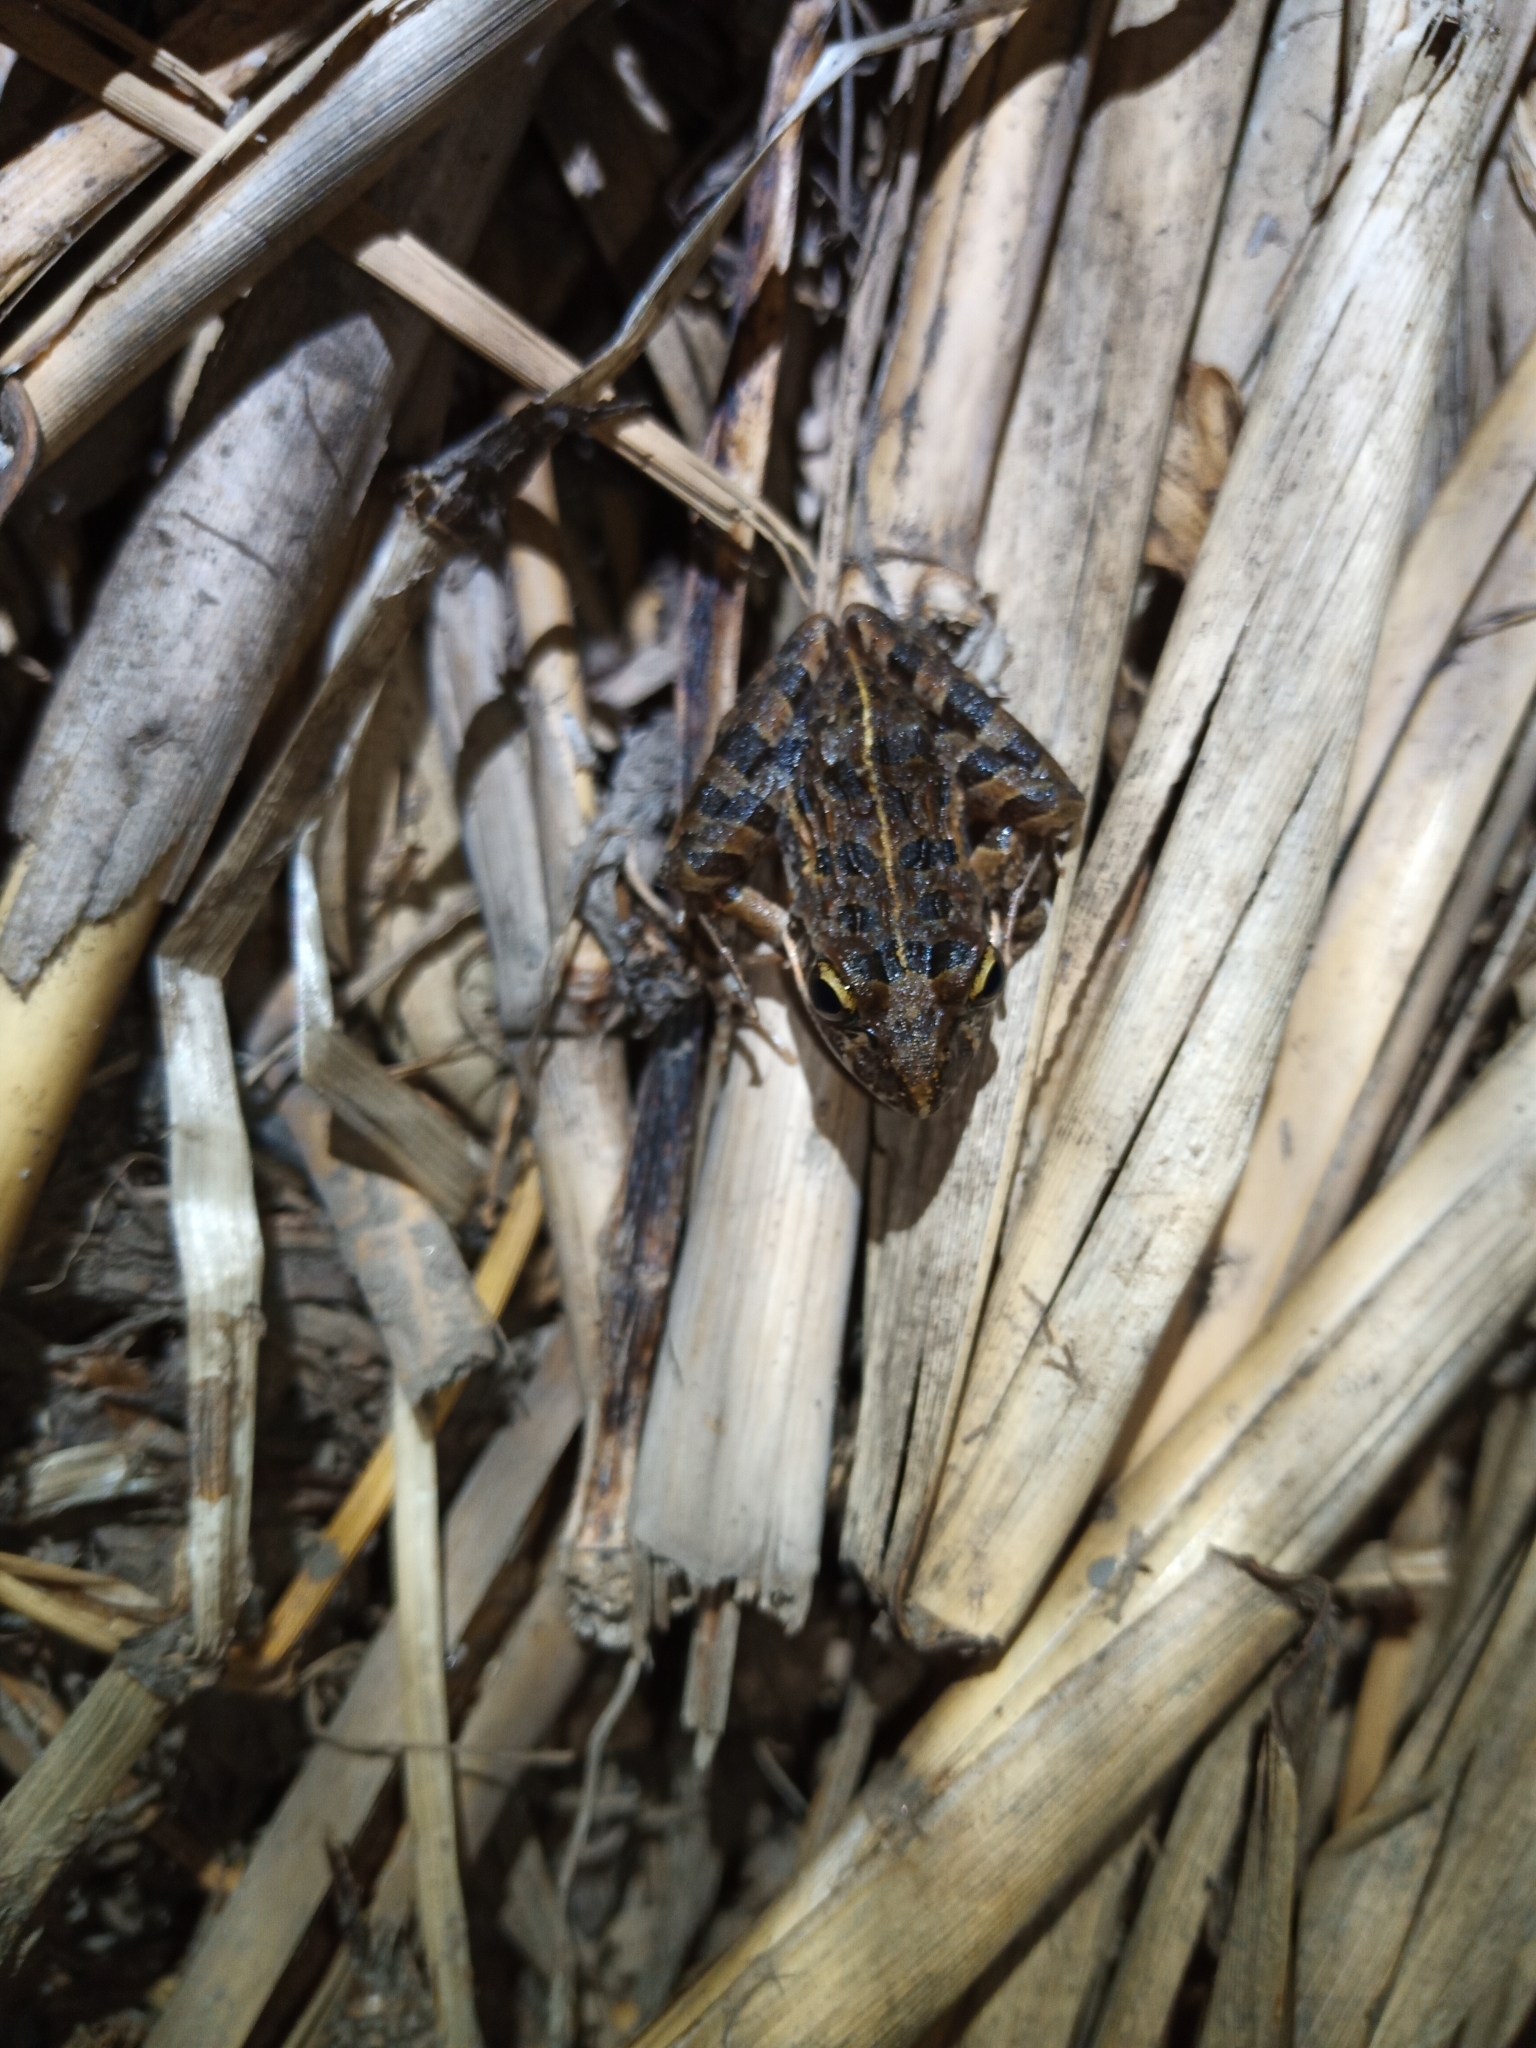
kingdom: Animalia
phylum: Chordata
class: Amphibia
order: Anura
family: Pyxicephalidae
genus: Strongylopus
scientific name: Strongylopus grayii
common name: Gray's stream frog
